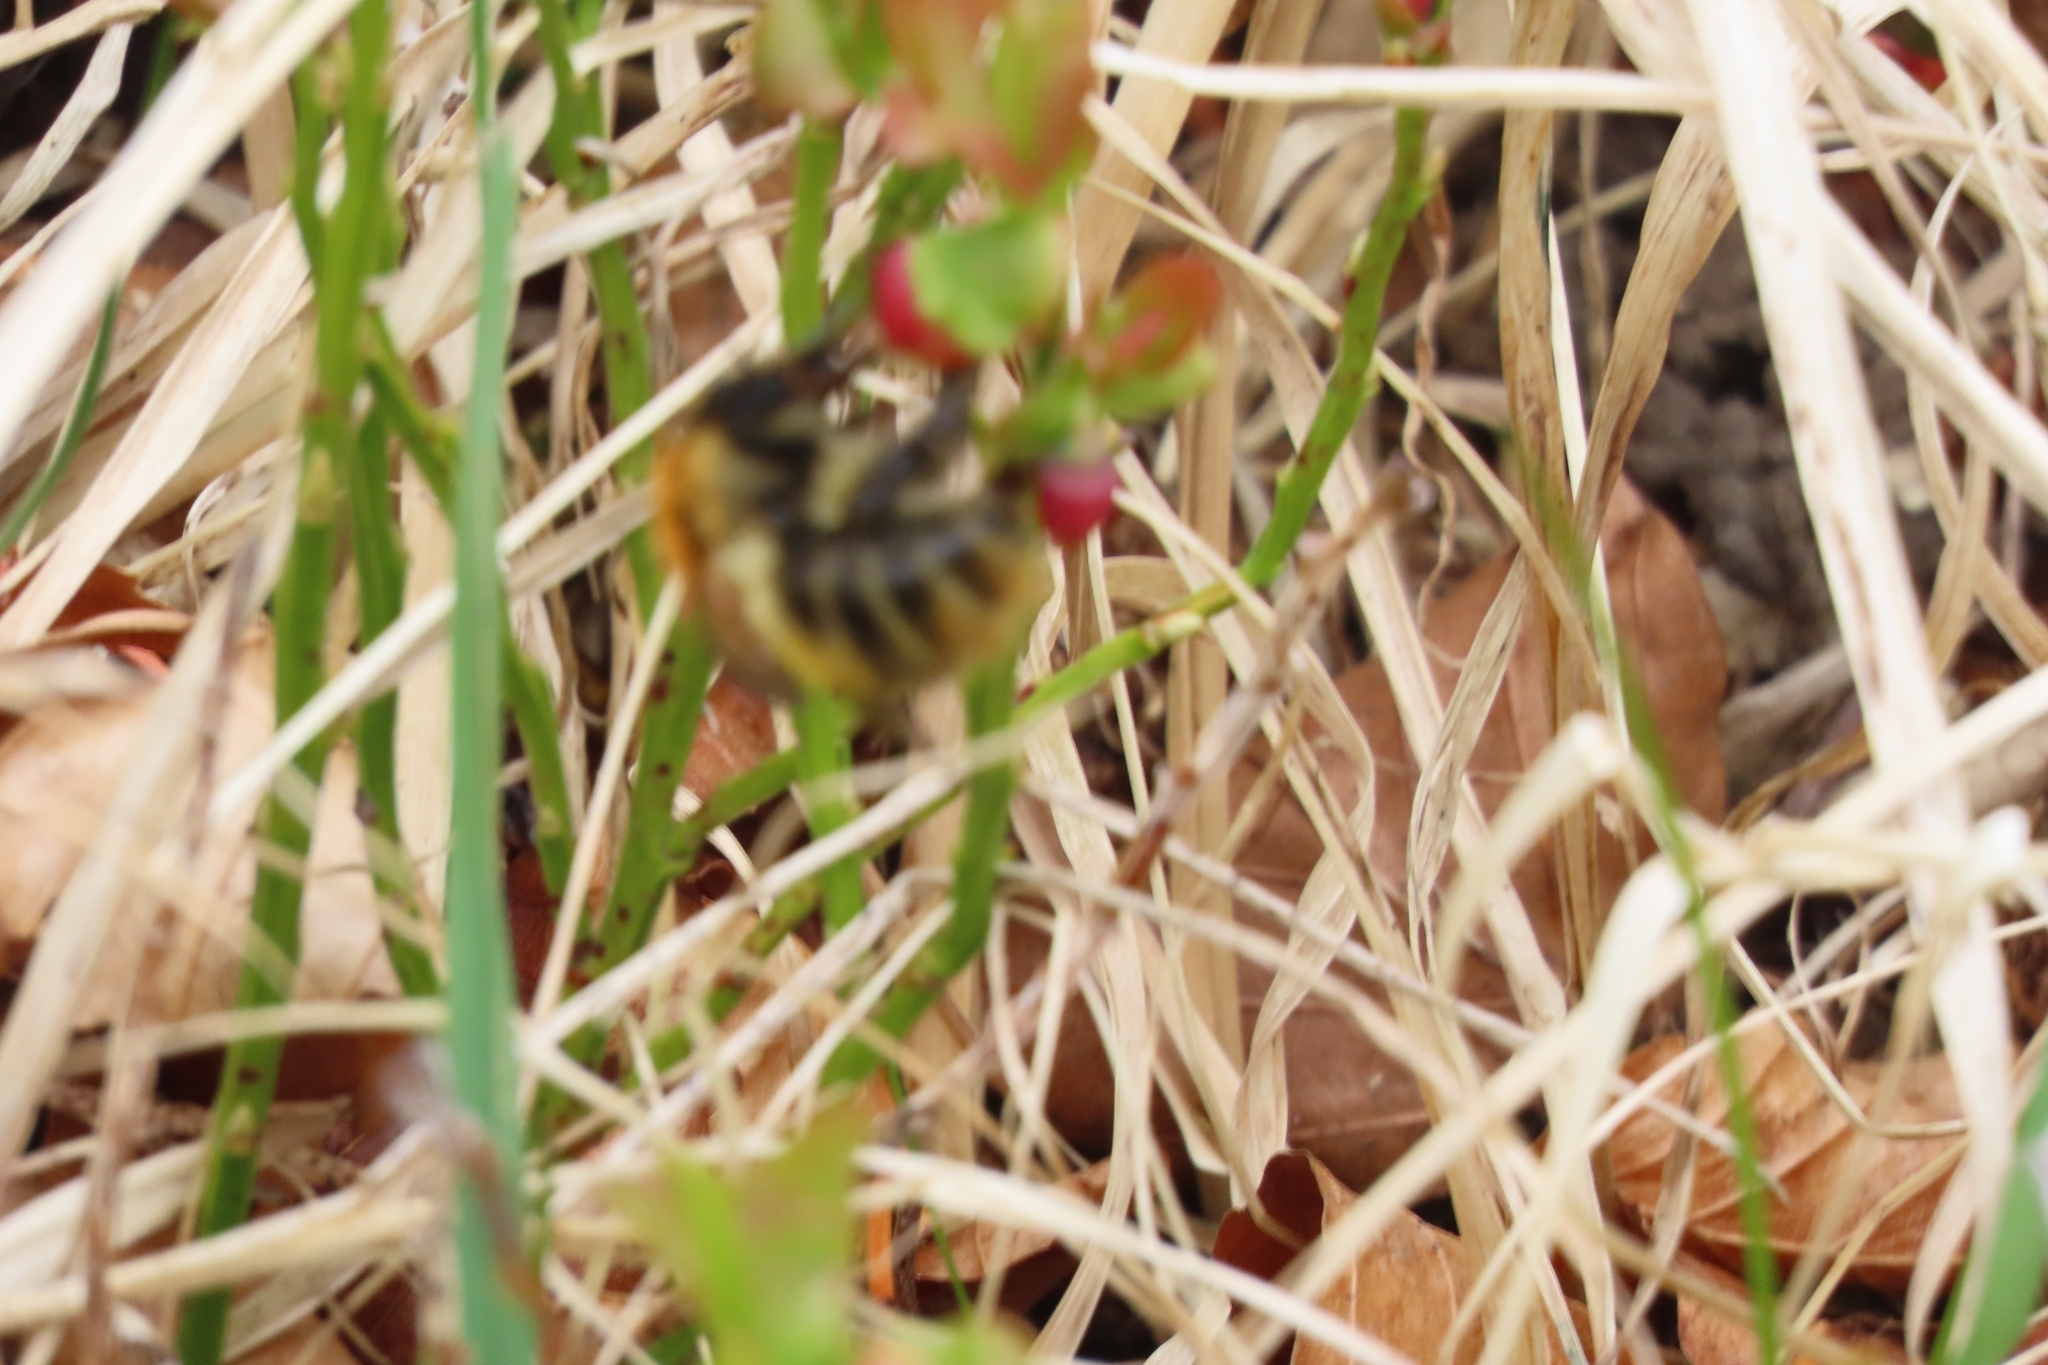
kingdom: Animalia
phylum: Arthropoda
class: Insecta
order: Hymenoptera
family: Apidae
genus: Bombus
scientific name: Bombus pascuorum
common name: Common carder bee
